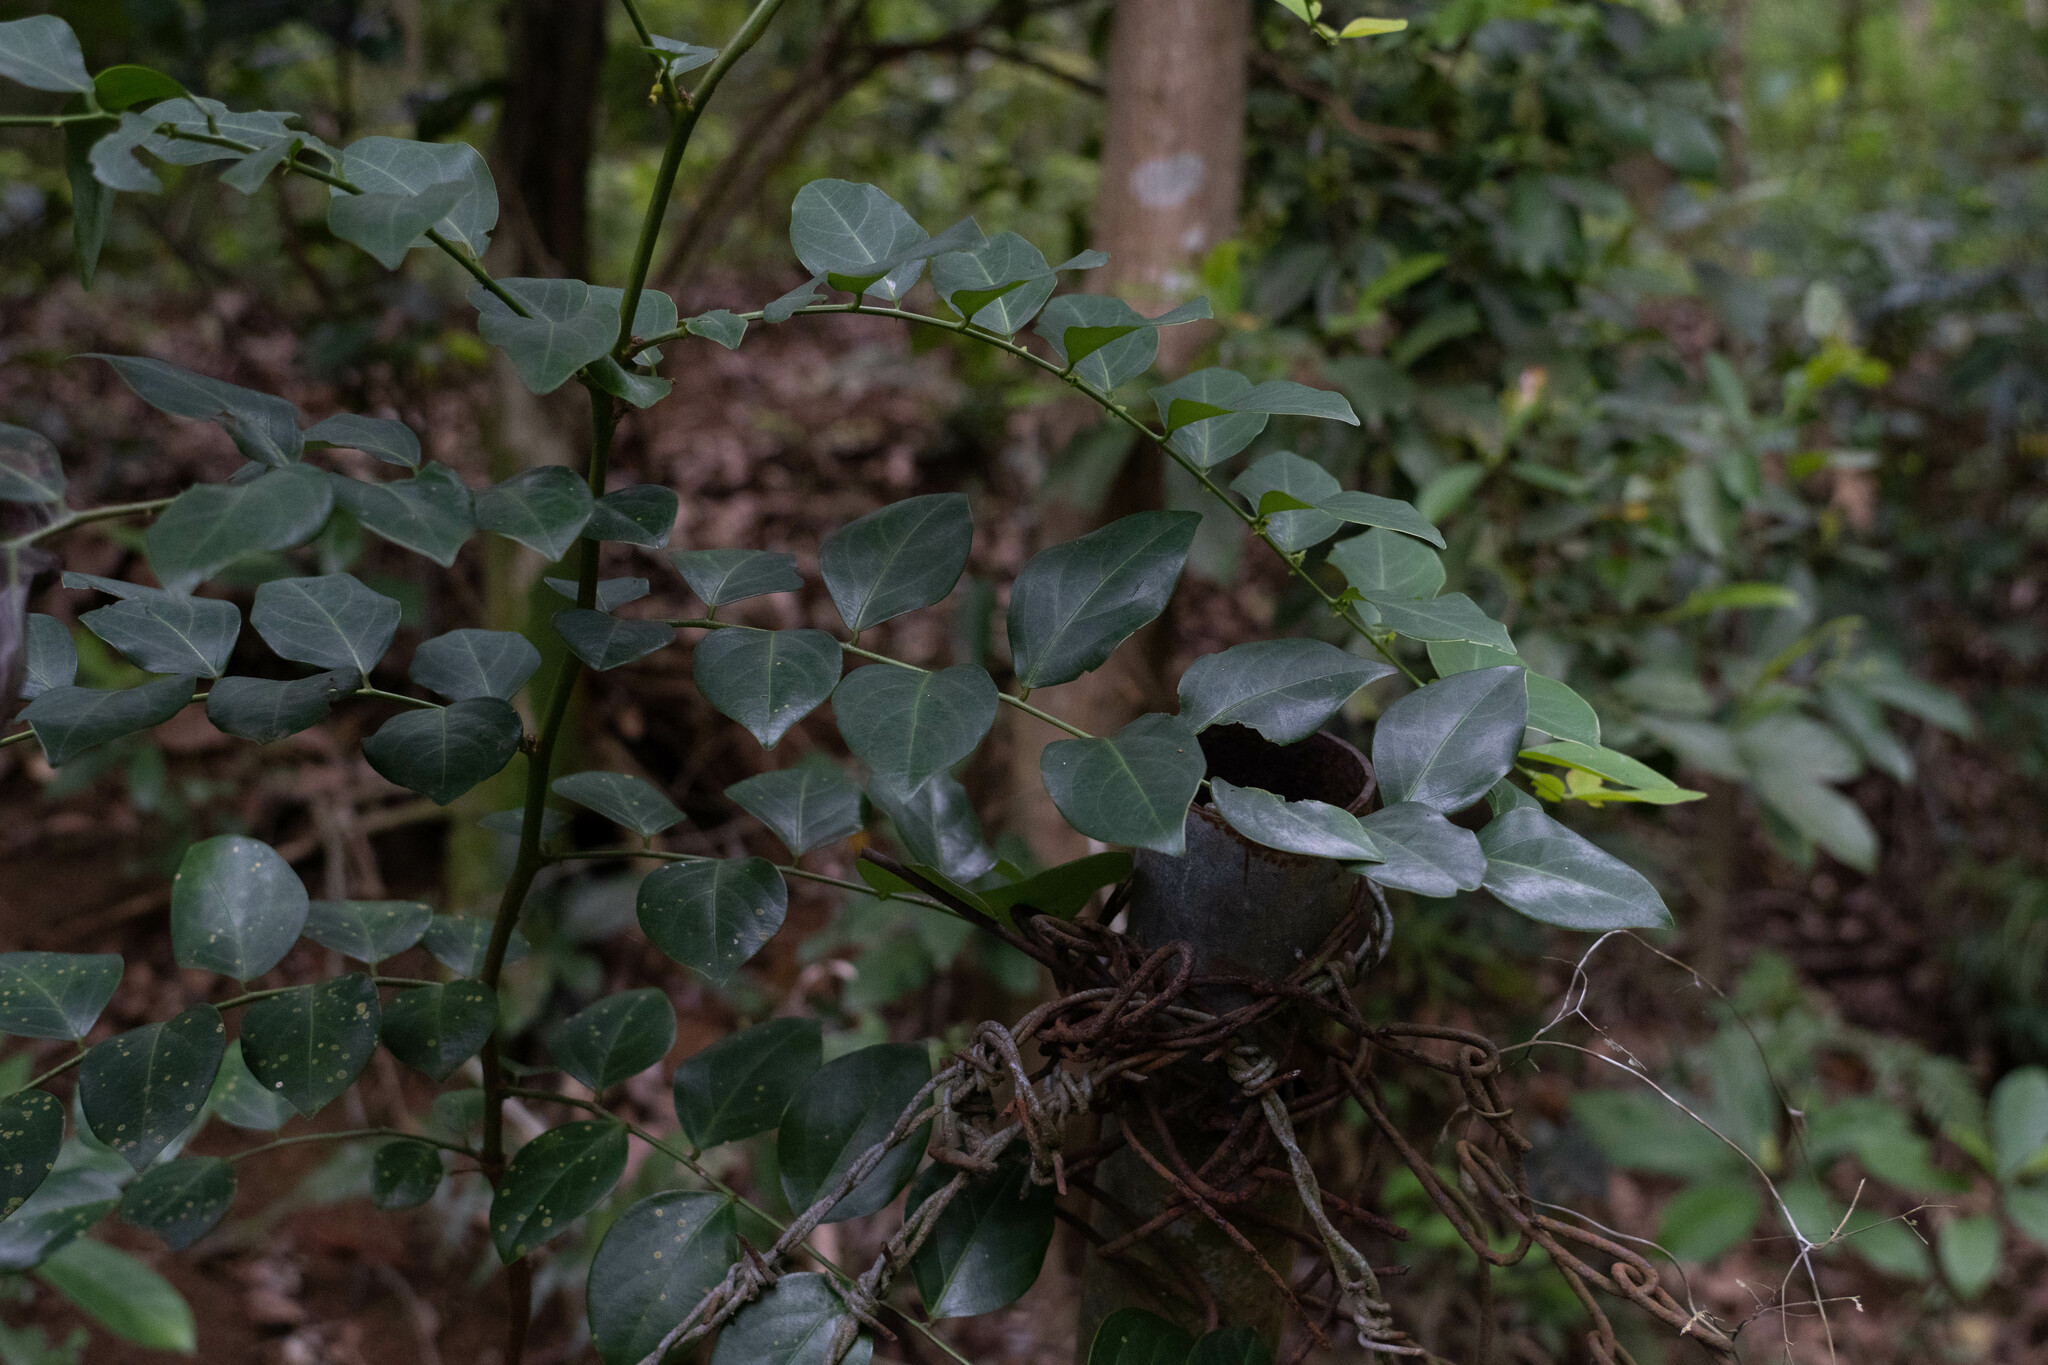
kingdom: Plantae
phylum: Tracheophyta
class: Magnoliopsida
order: Malpighiales
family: Phyllanthaceae
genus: Breynia
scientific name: Breynia fruticosa
